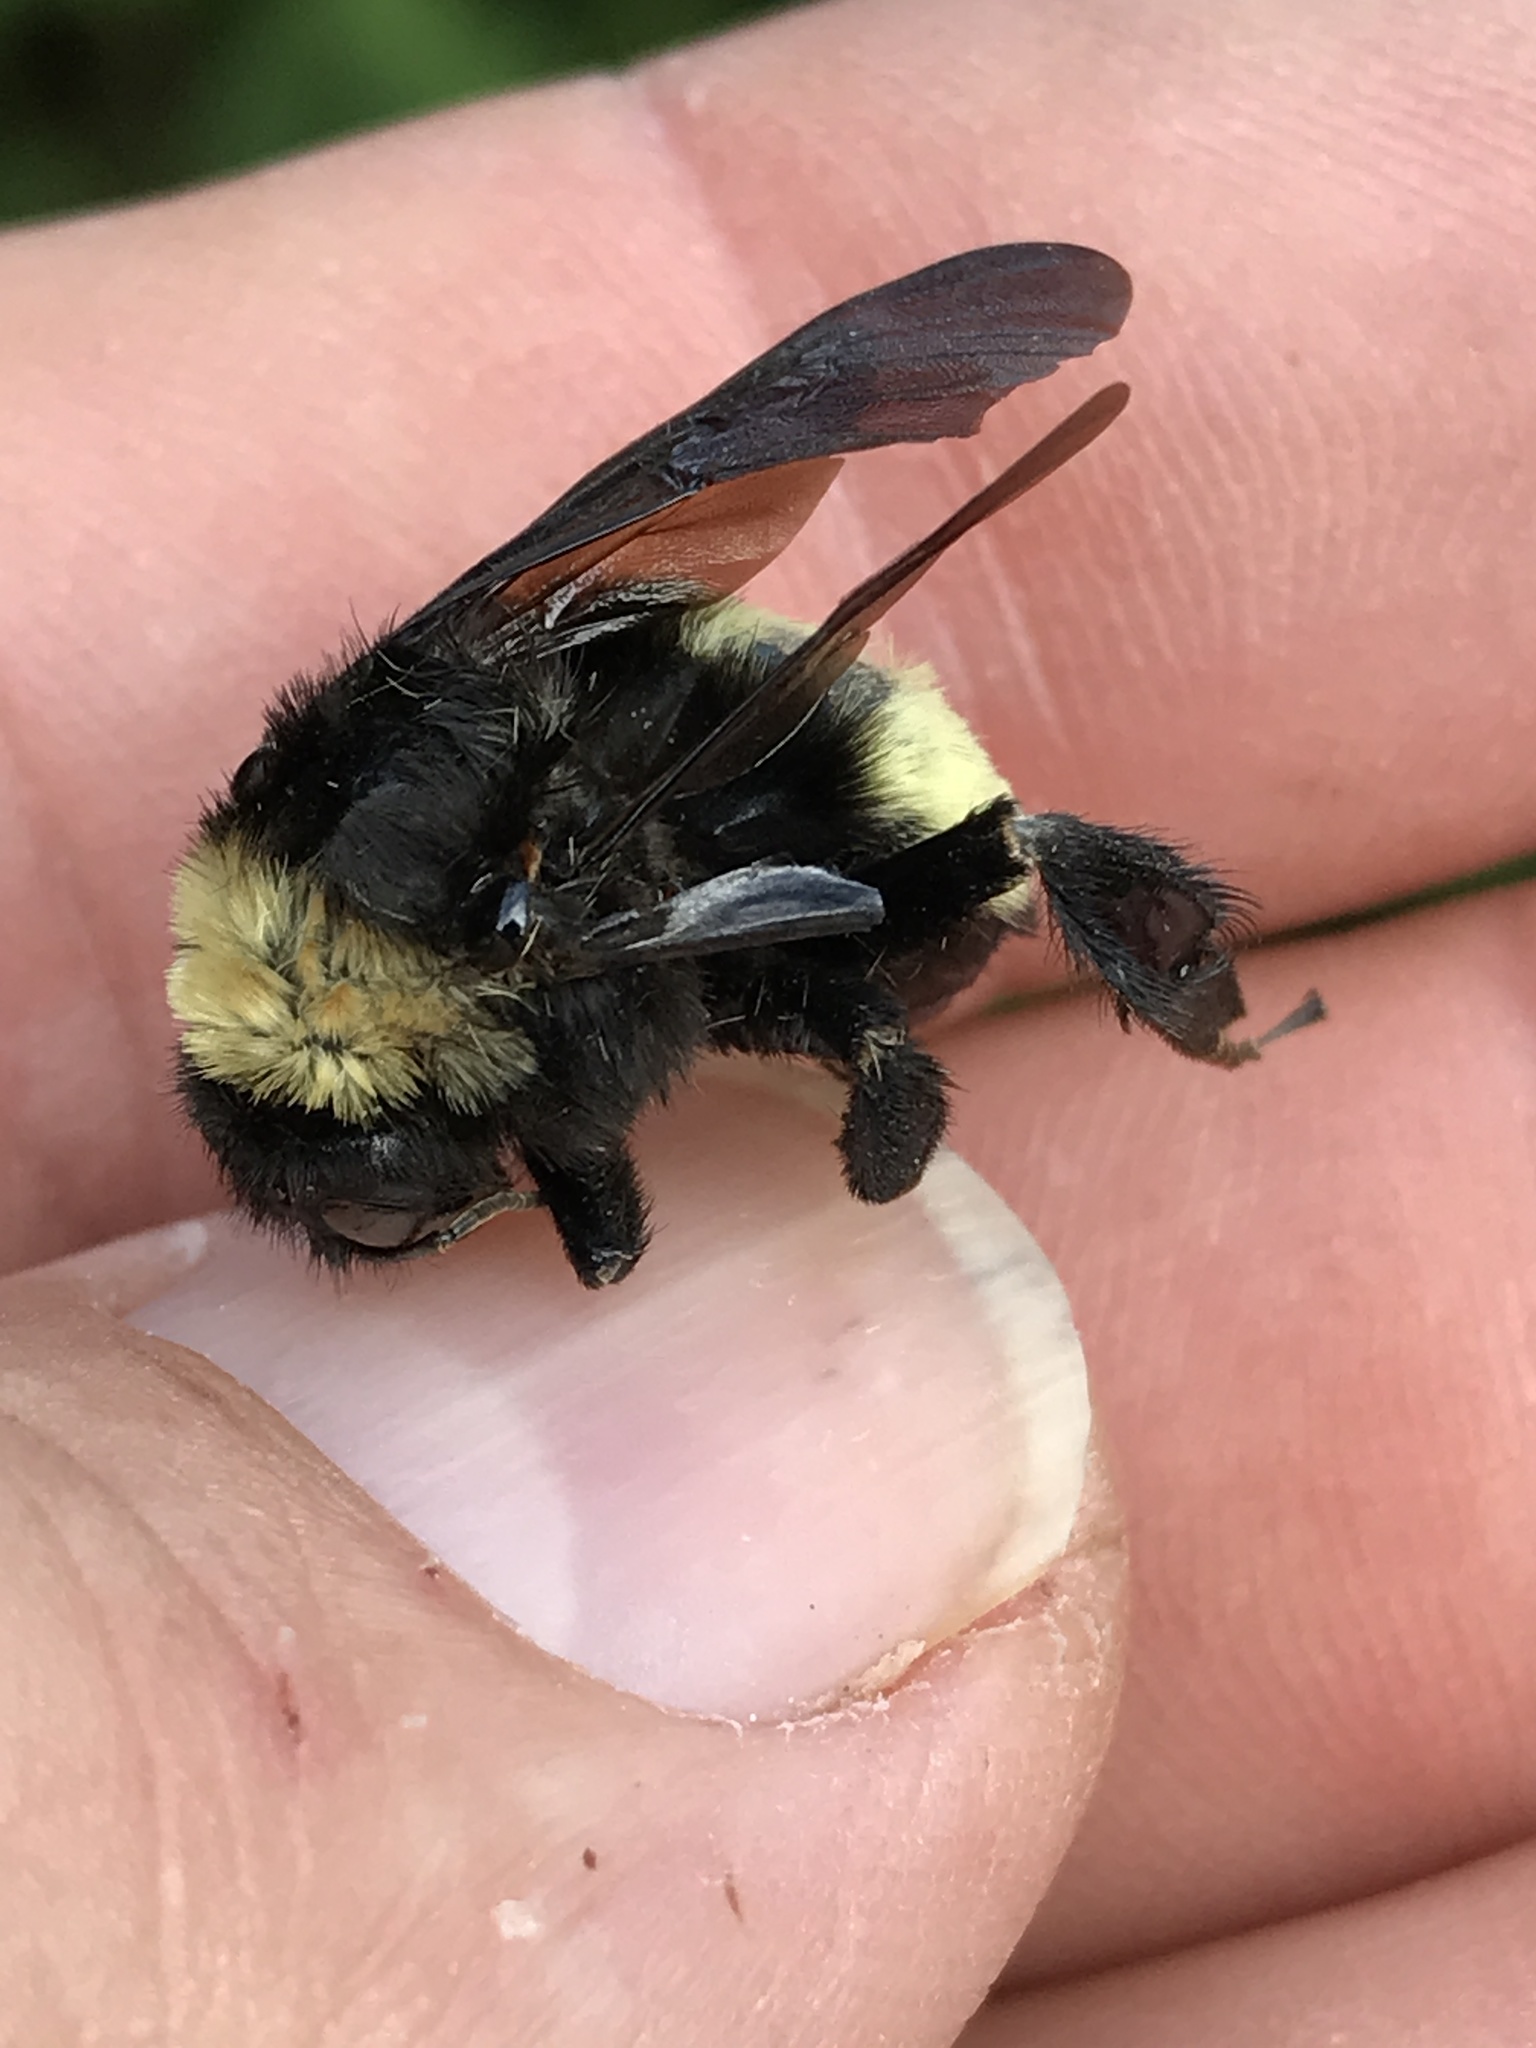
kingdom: Animalia
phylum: Arthropoda
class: Insecta
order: Hymenoptera
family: Apidae
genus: Bombus
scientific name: Bombus pensylvanicus
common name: Bumble bee
